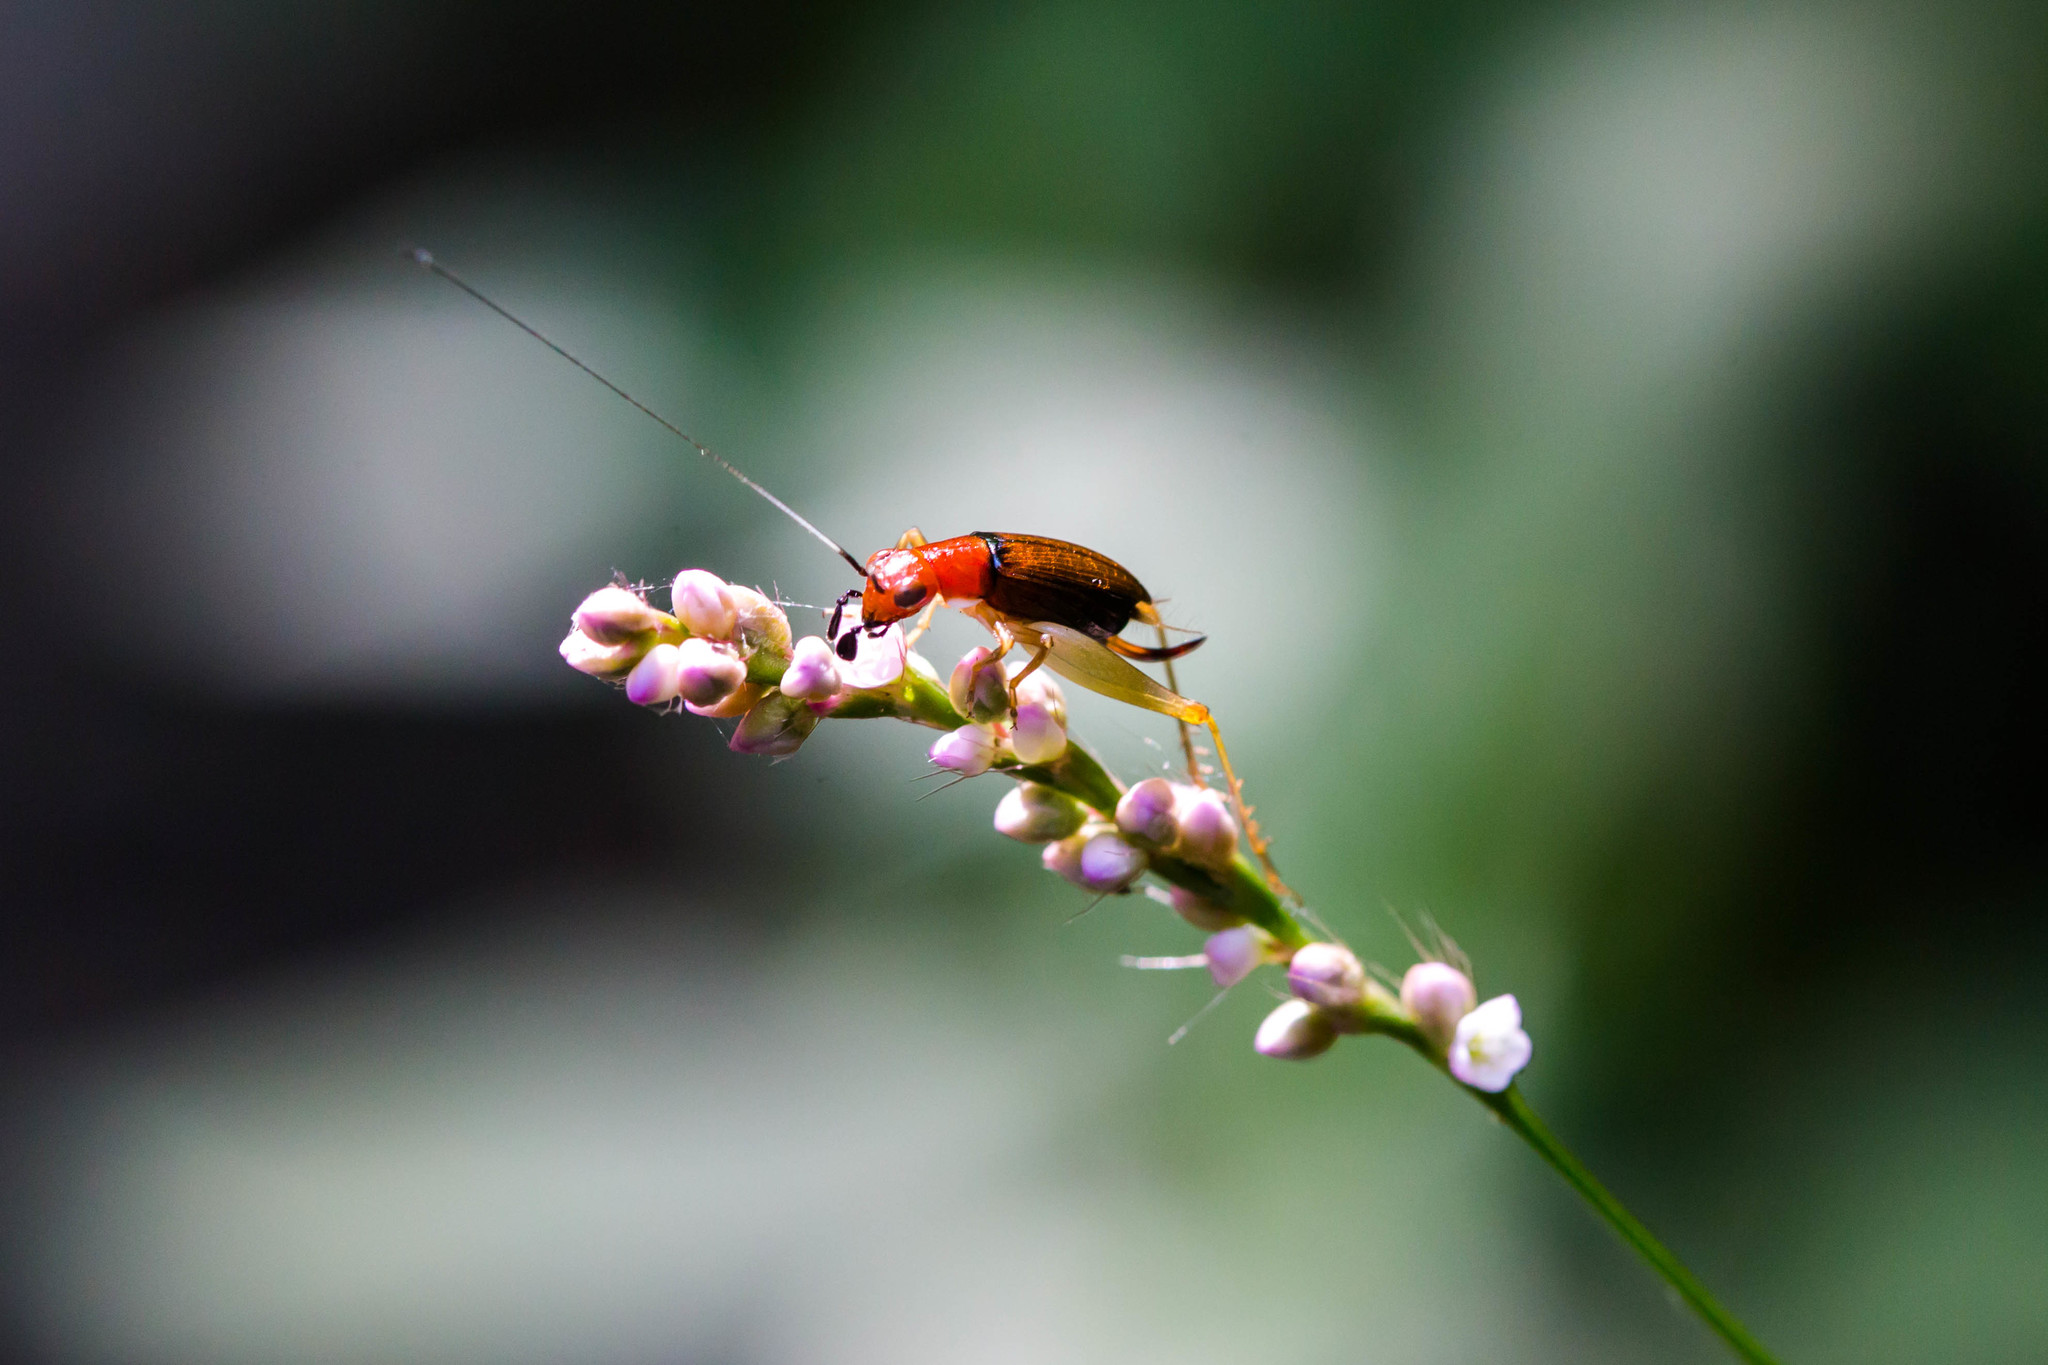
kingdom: Animalia
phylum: Arthropoda
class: Insecta
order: Orthoptera
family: Trigonidiidae
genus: Phyllopalpus
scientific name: Phyllopalpus pulchellus
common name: Handsome trig
